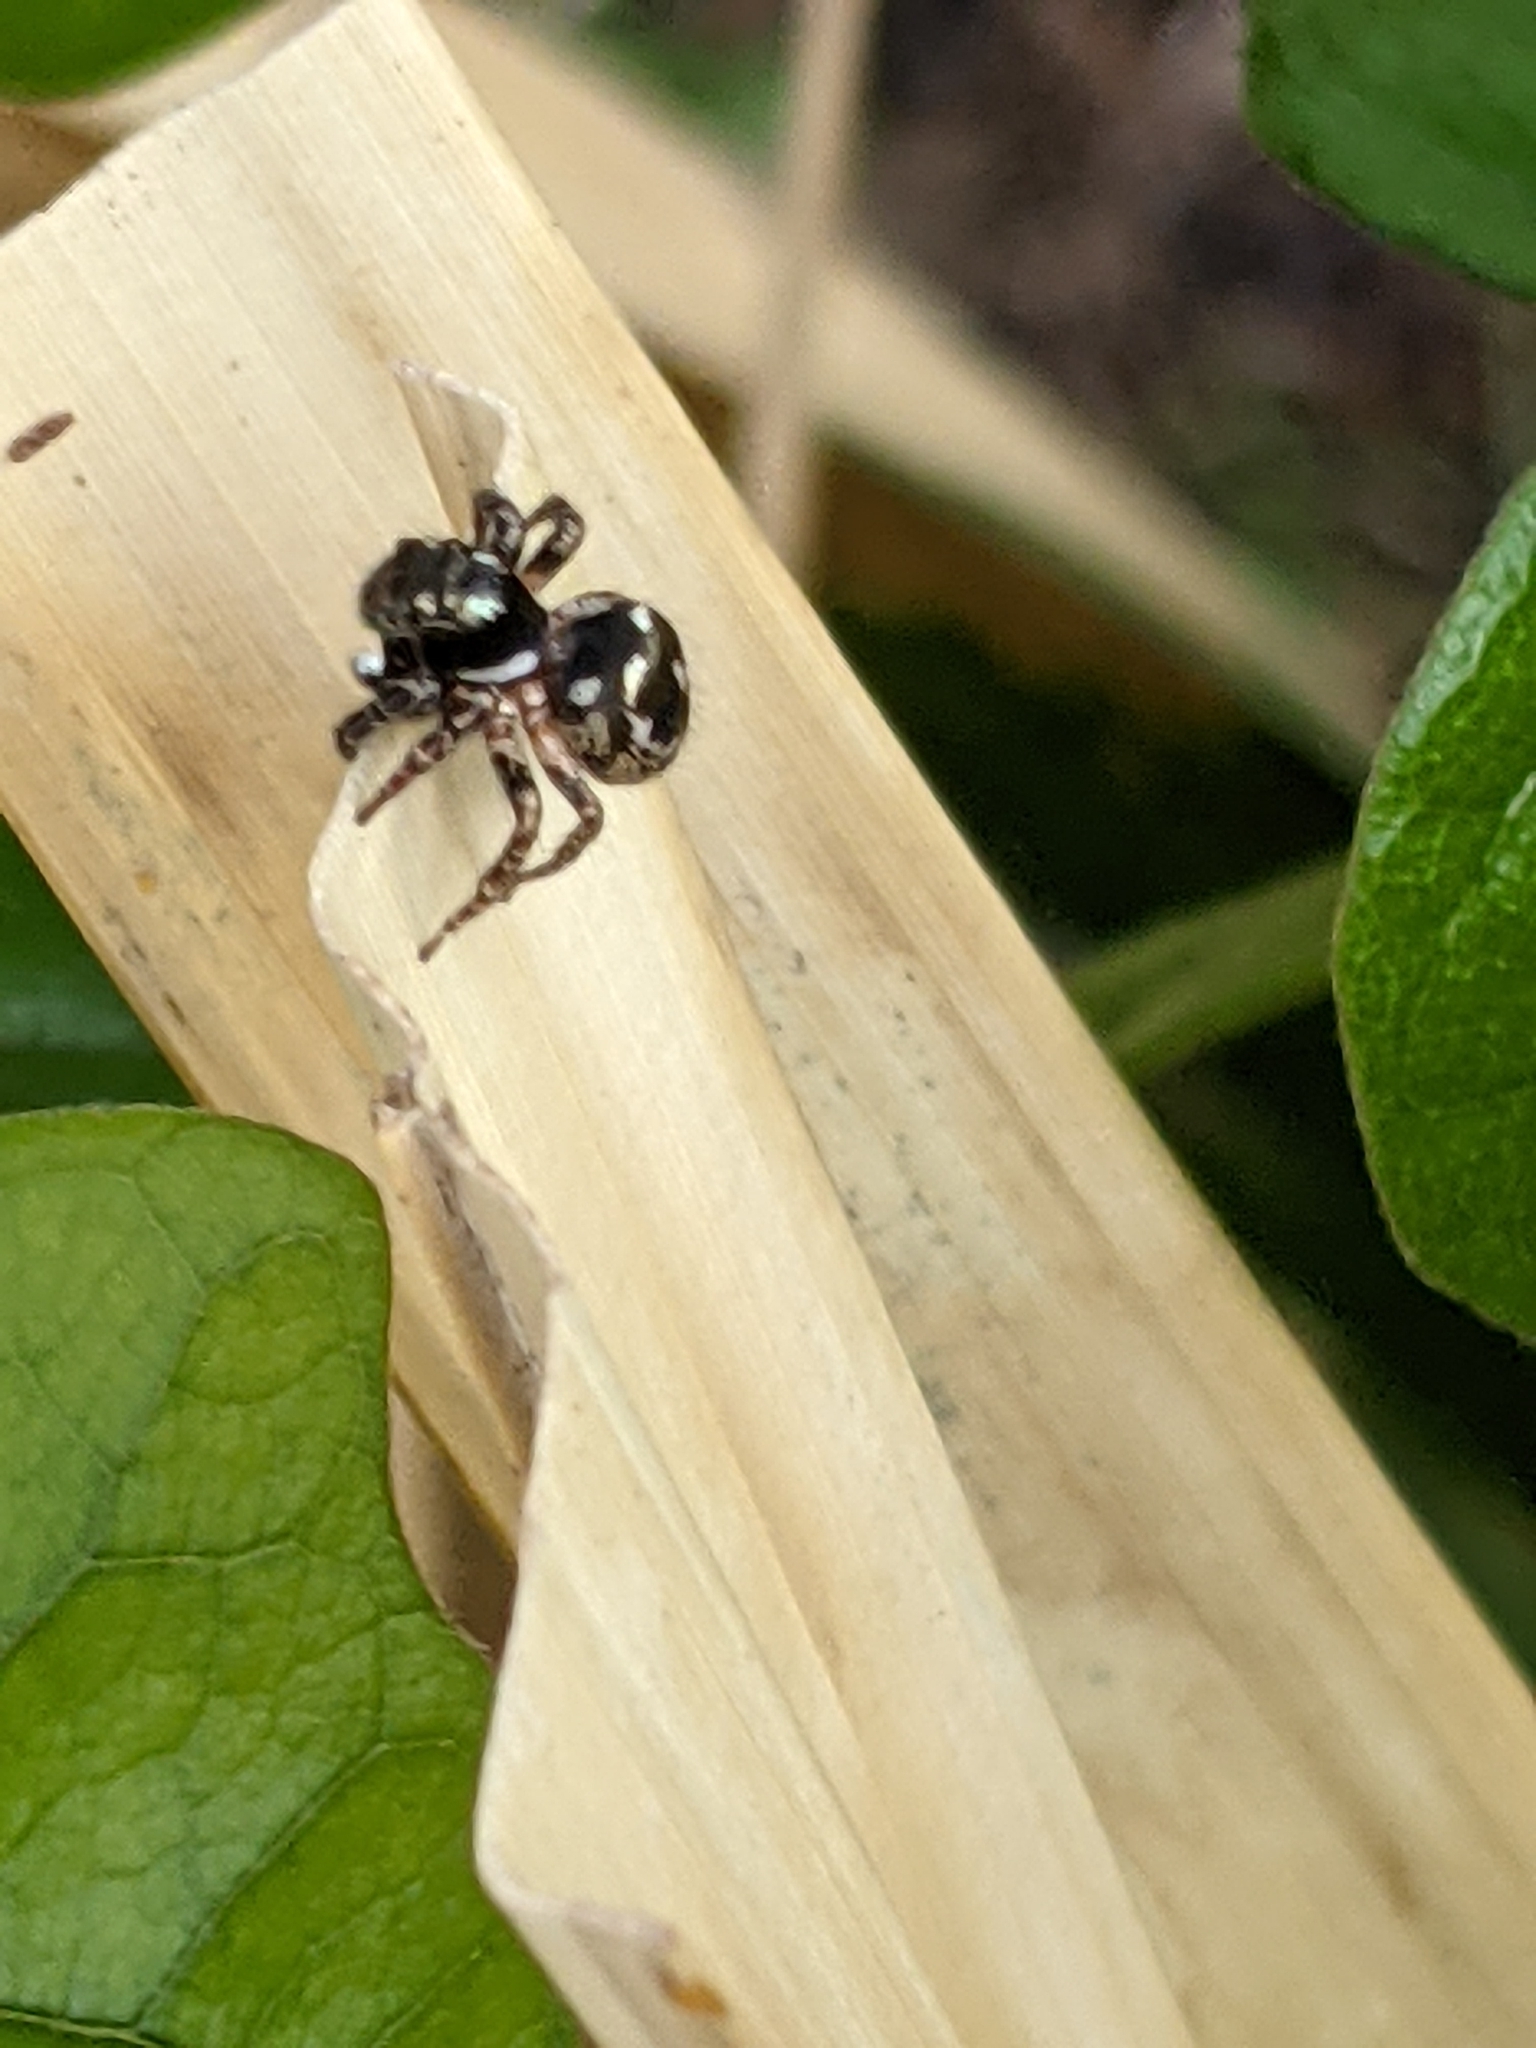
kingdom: Animalia
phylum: Arthropoda
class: Arachnida
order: Araneae
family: Salticidae
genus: Anasaitis
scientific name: Anasaitis canosa
